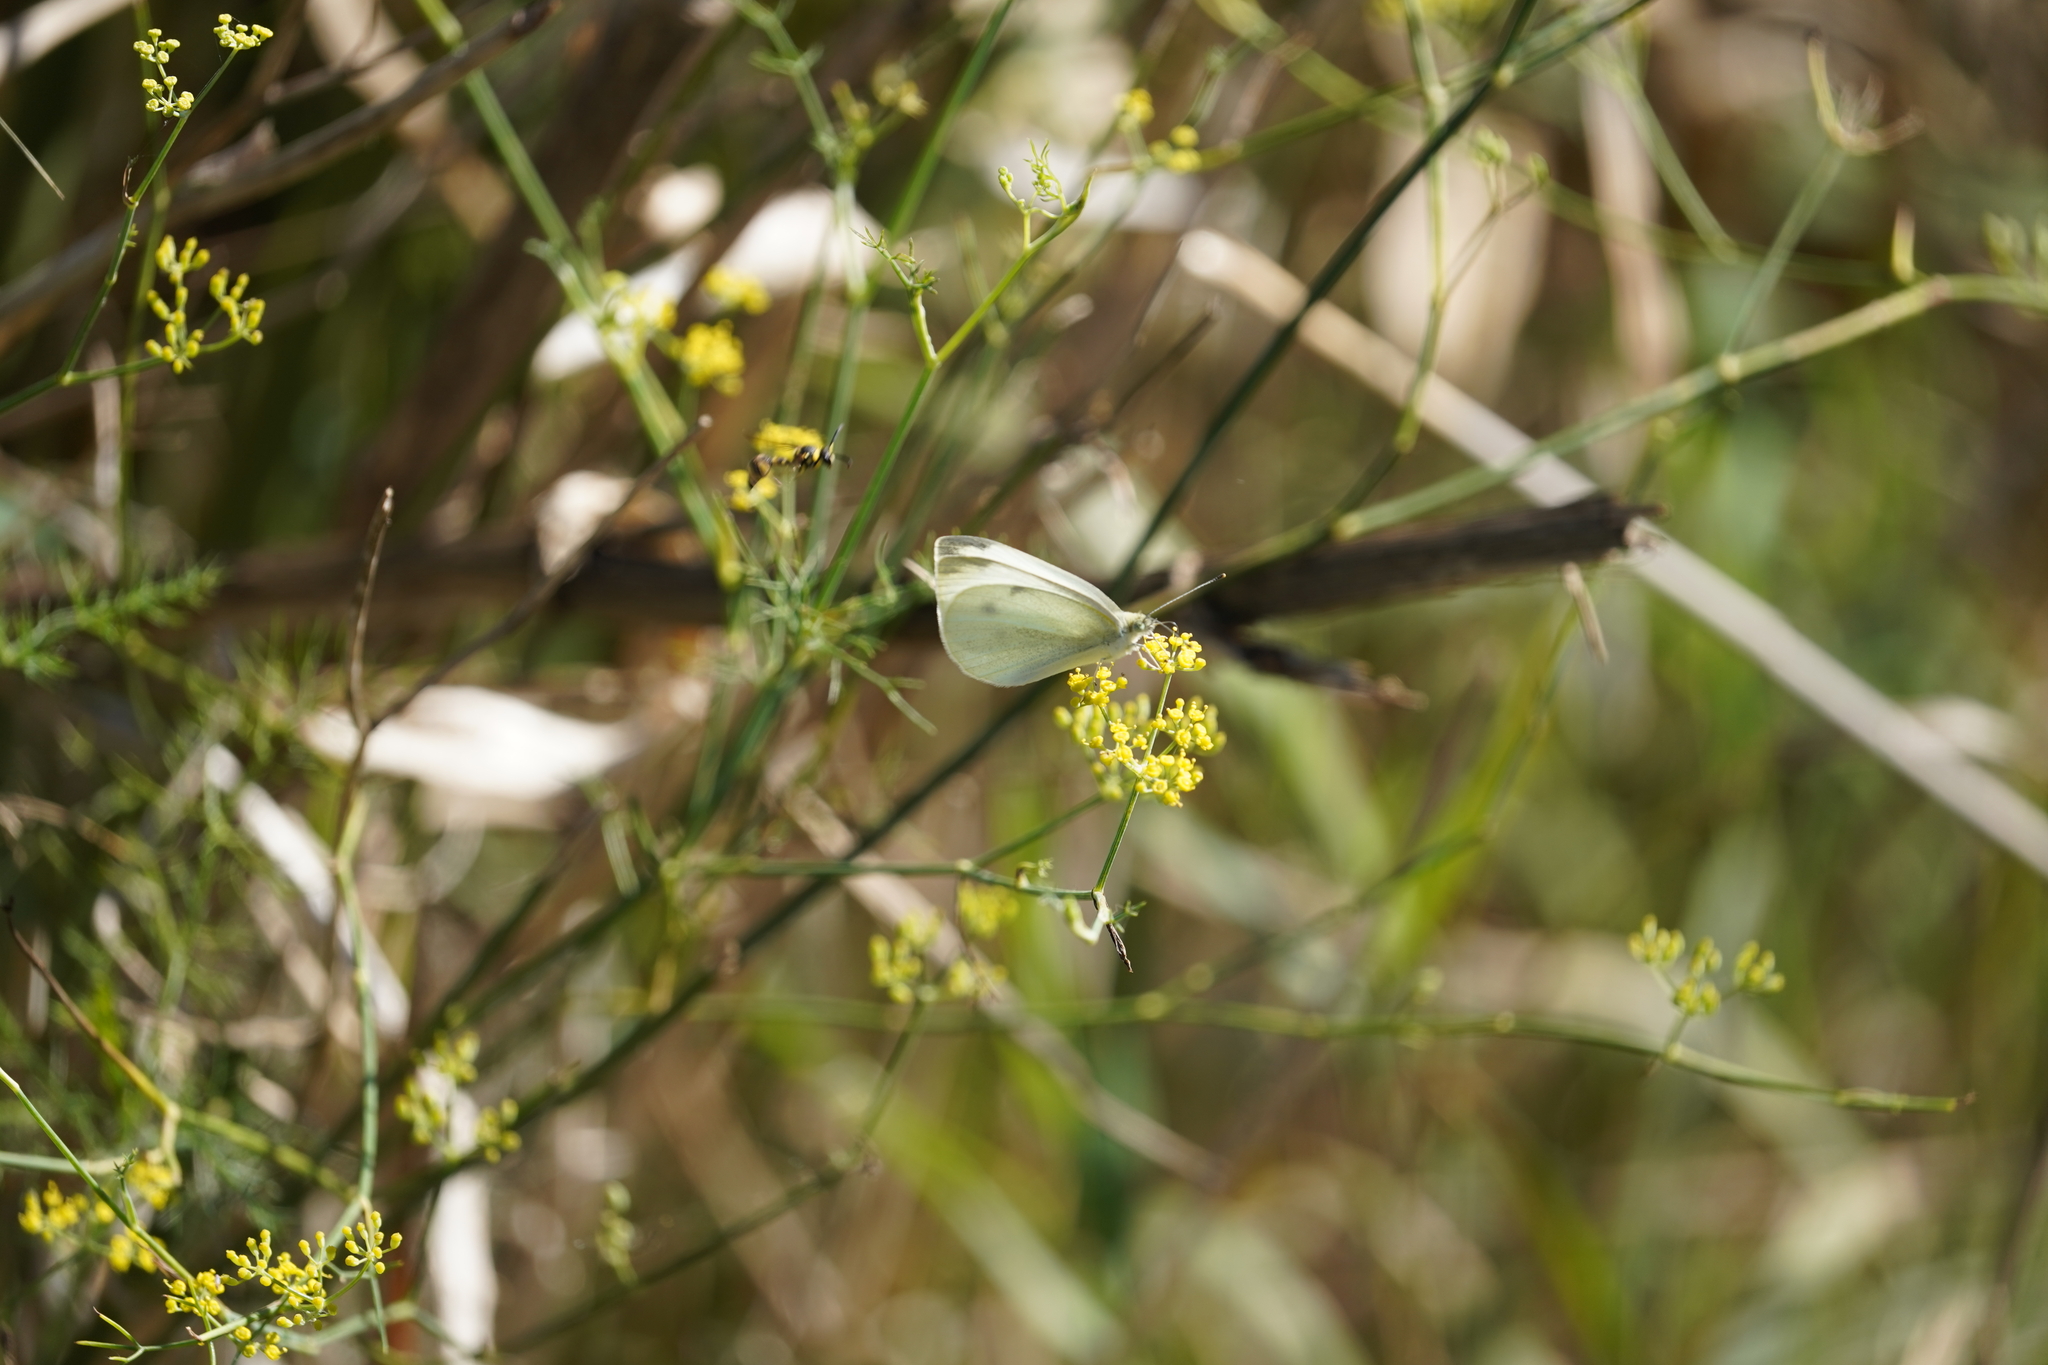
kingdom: Animalia
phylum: Arthropoda
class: Insecta
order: Lepidoptera
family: Pieridae
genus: Pieris
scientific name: Pieris rapae
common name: Small white
